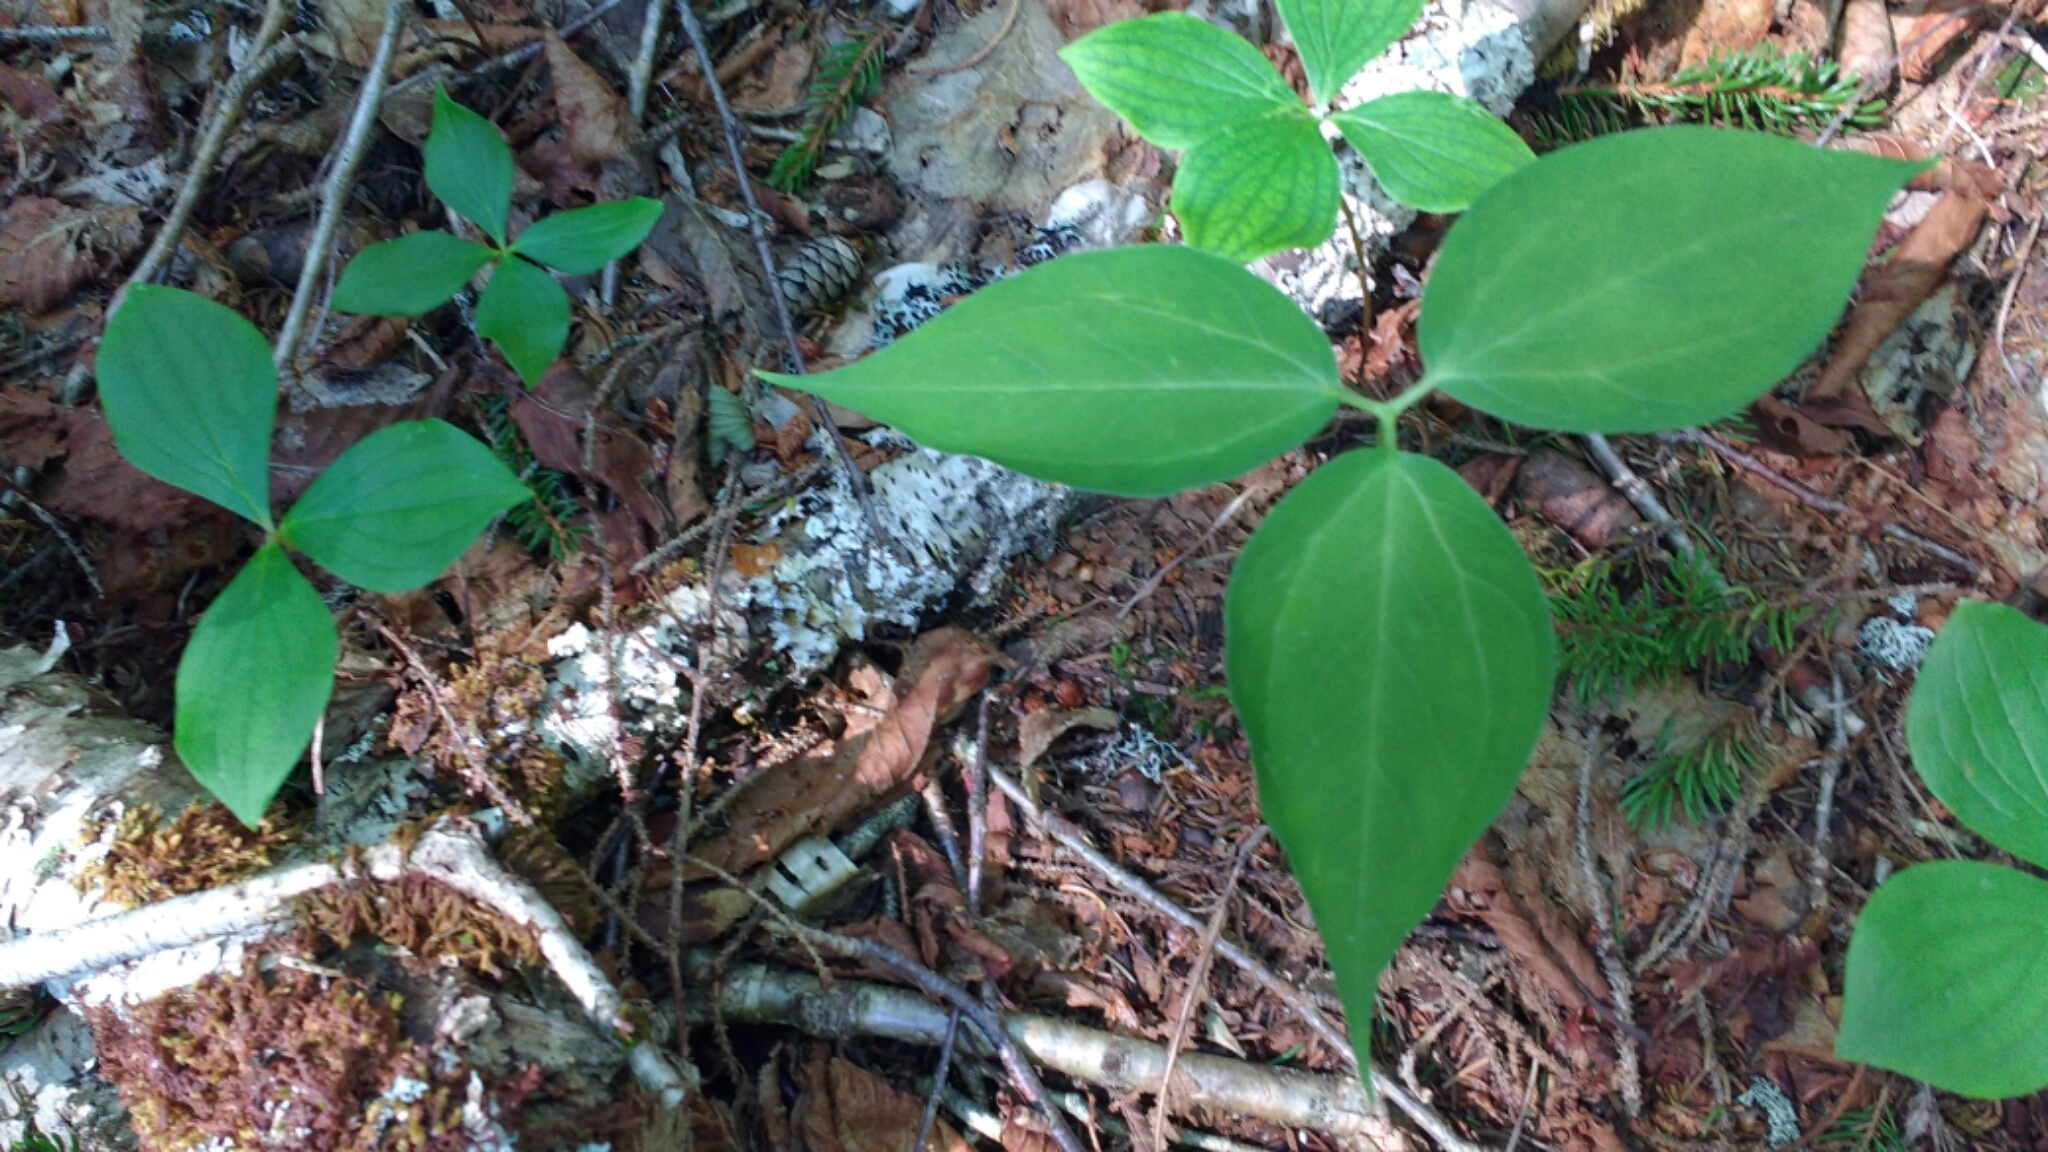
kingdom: Plantae
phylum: Tracheophyta
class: Liliopsida
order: Liliales
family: Melanthiaceae
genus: Trillium
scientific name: Trillium undulatum
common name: Paint trillium
